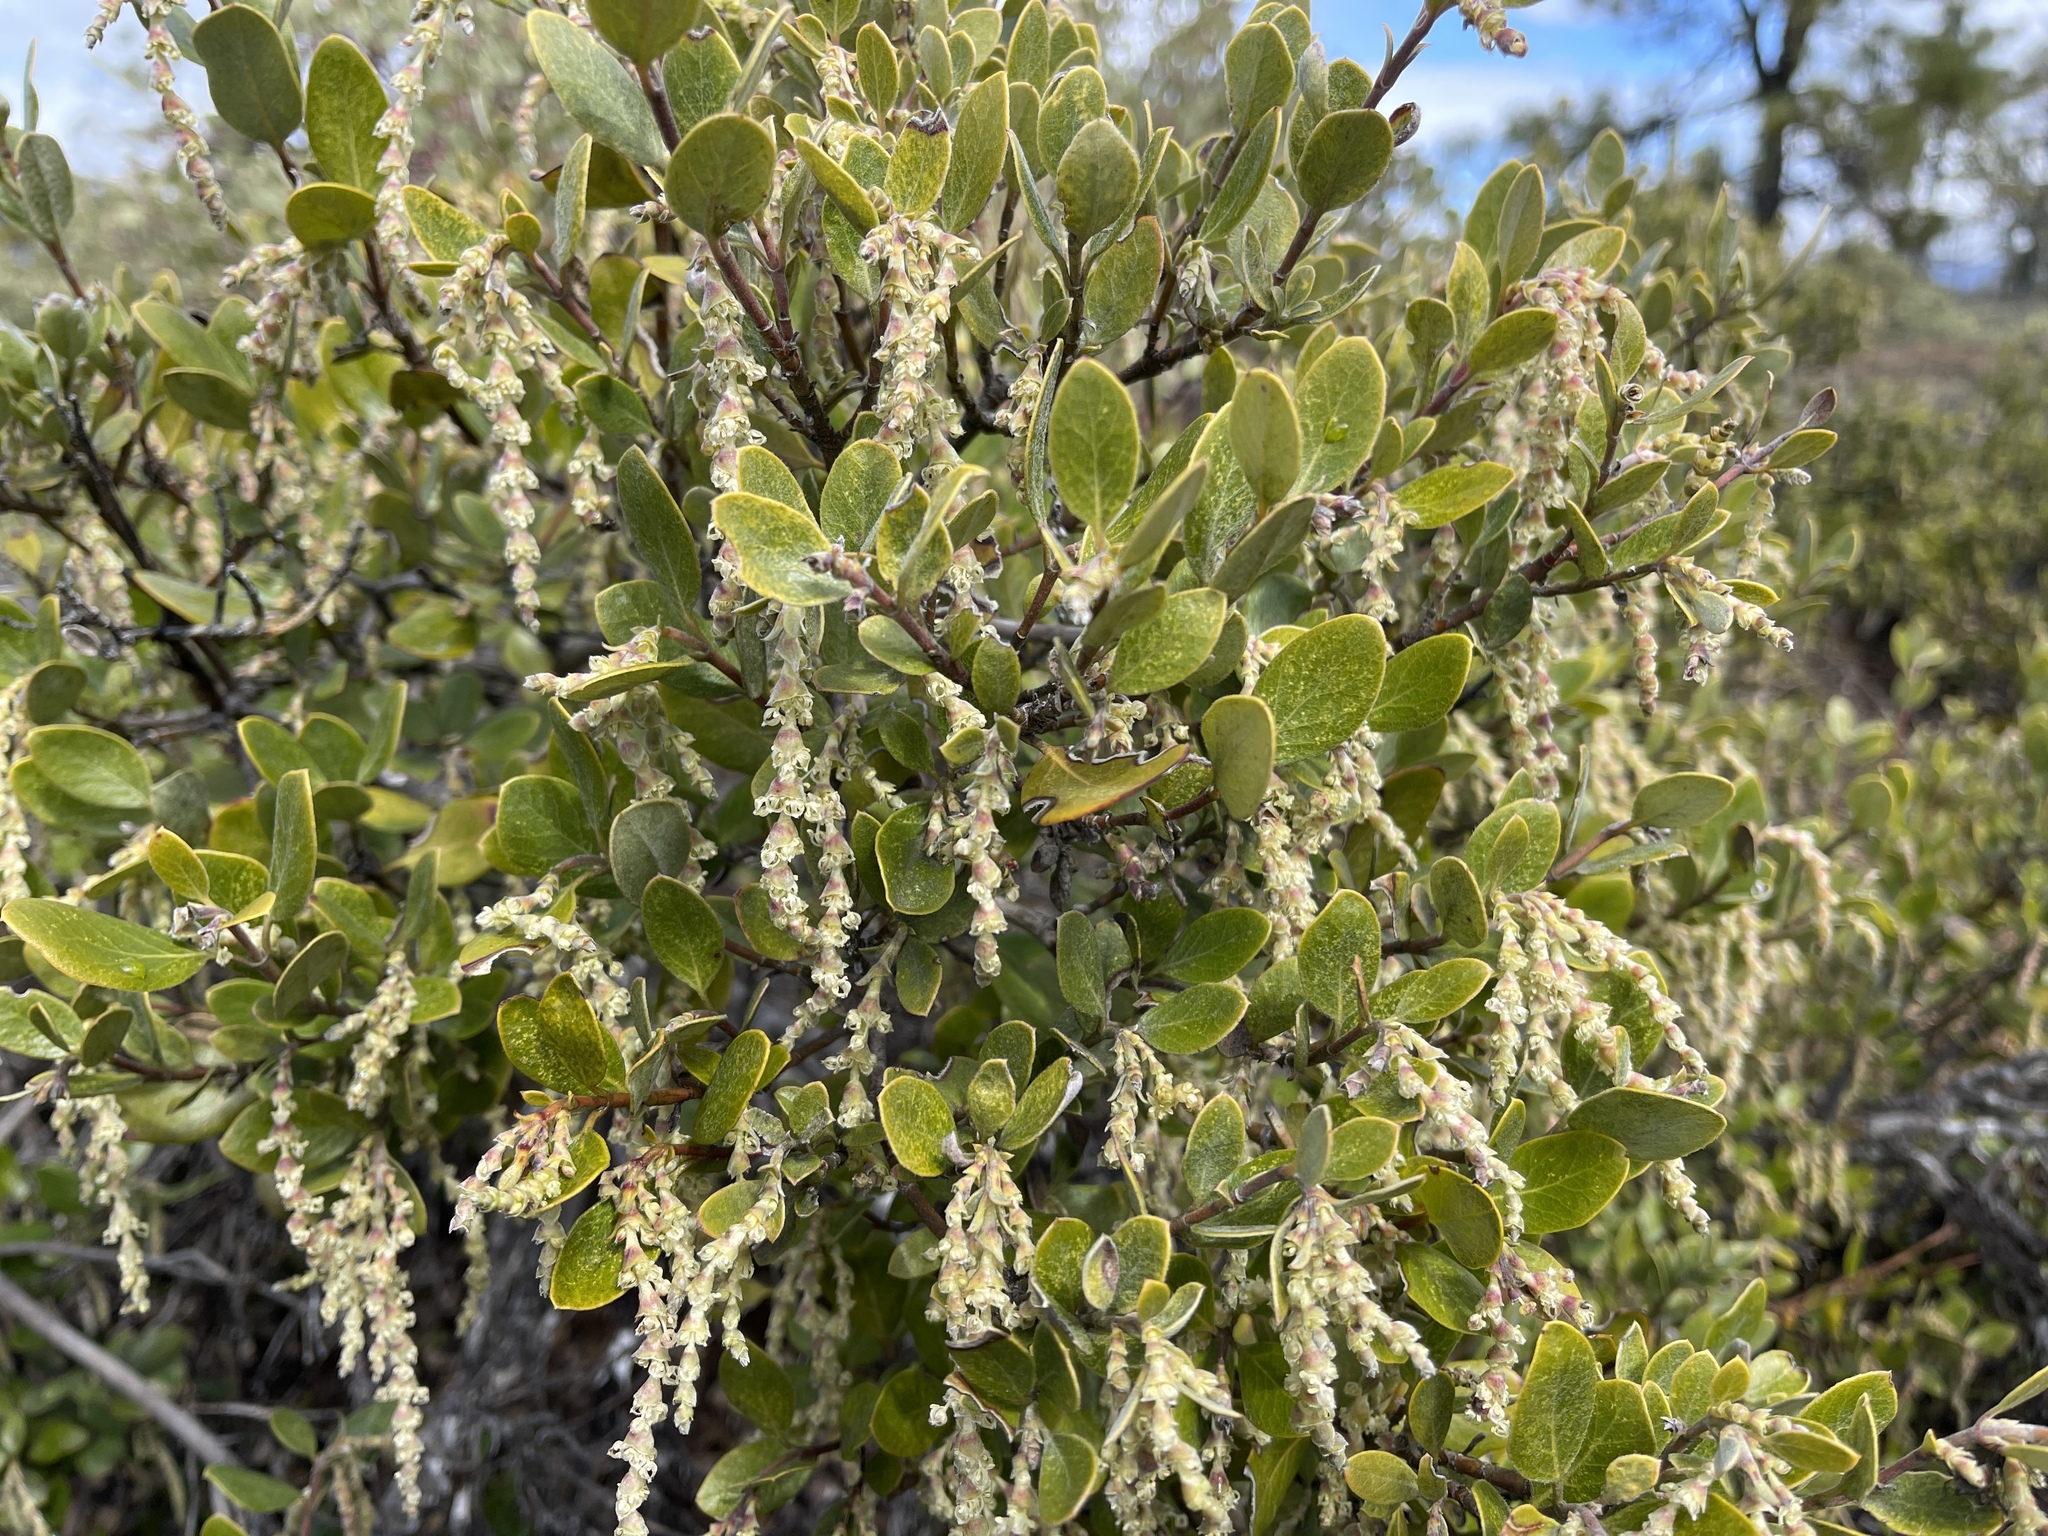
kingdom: Plantae
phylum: Tracheophyta
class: Magnoliopsida
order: Garryales
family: Garryaceae
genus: Garrya
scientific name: Garrya buxifolia
